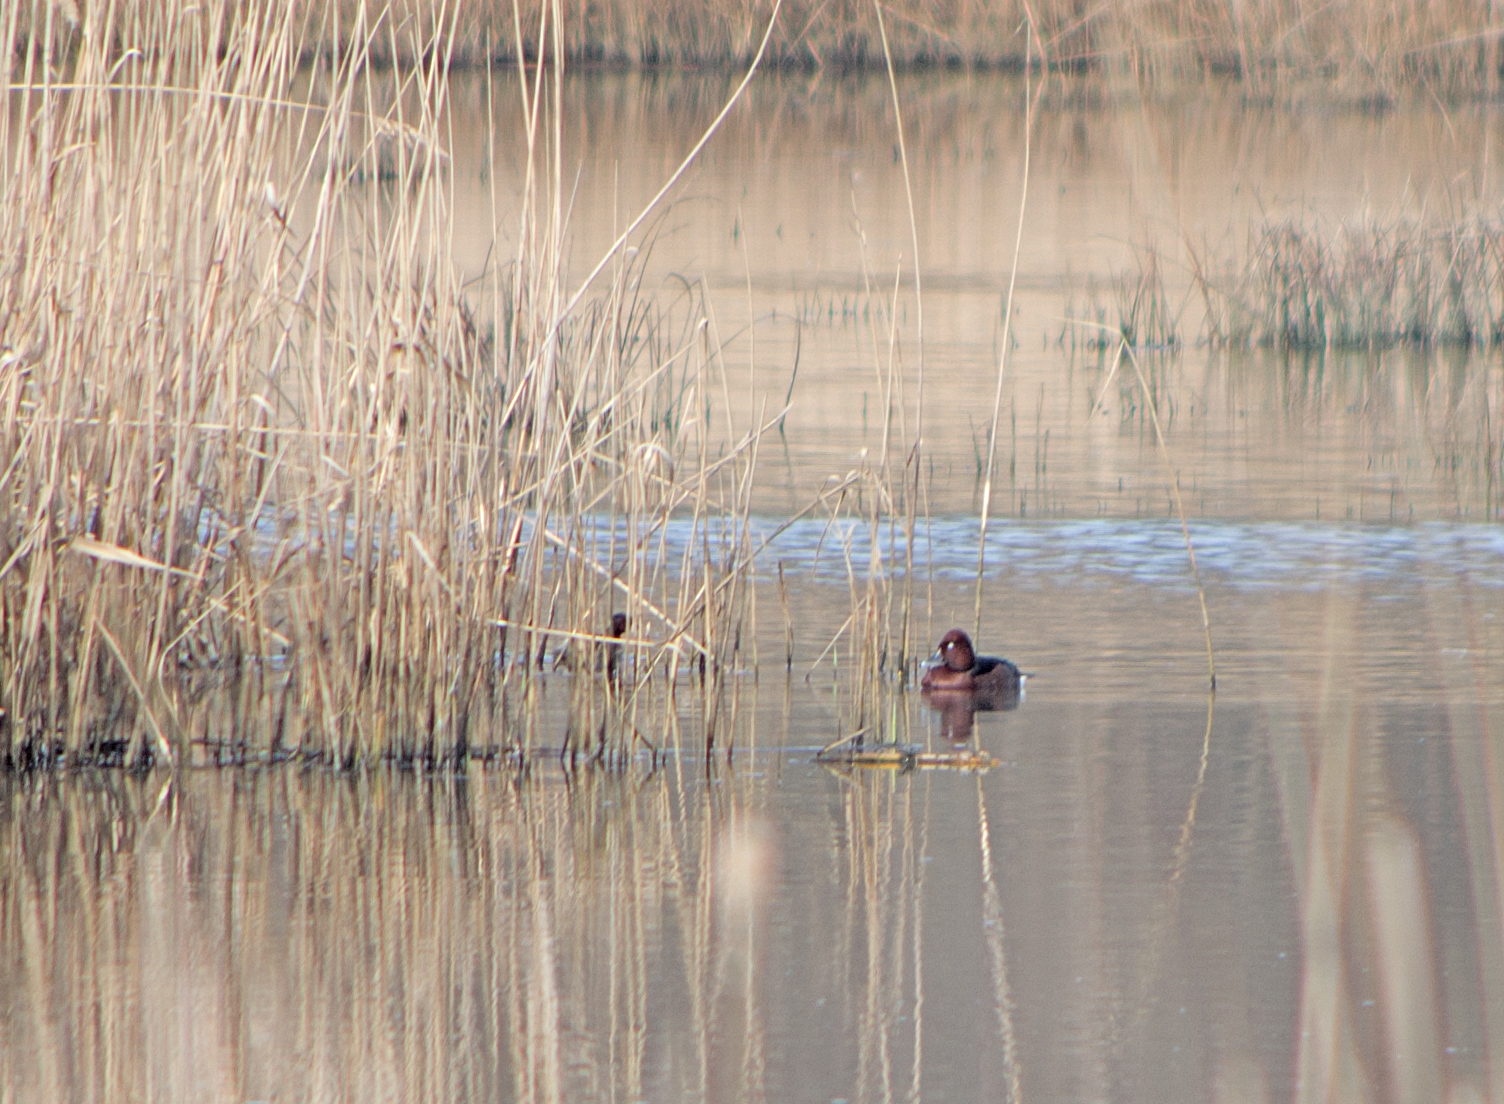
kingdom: Animalia
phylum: Chordata
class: Aves
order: Anseriformes
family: Anatidae
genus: Aythya
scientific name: Aythya nyroca
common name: Ferruginous duck
